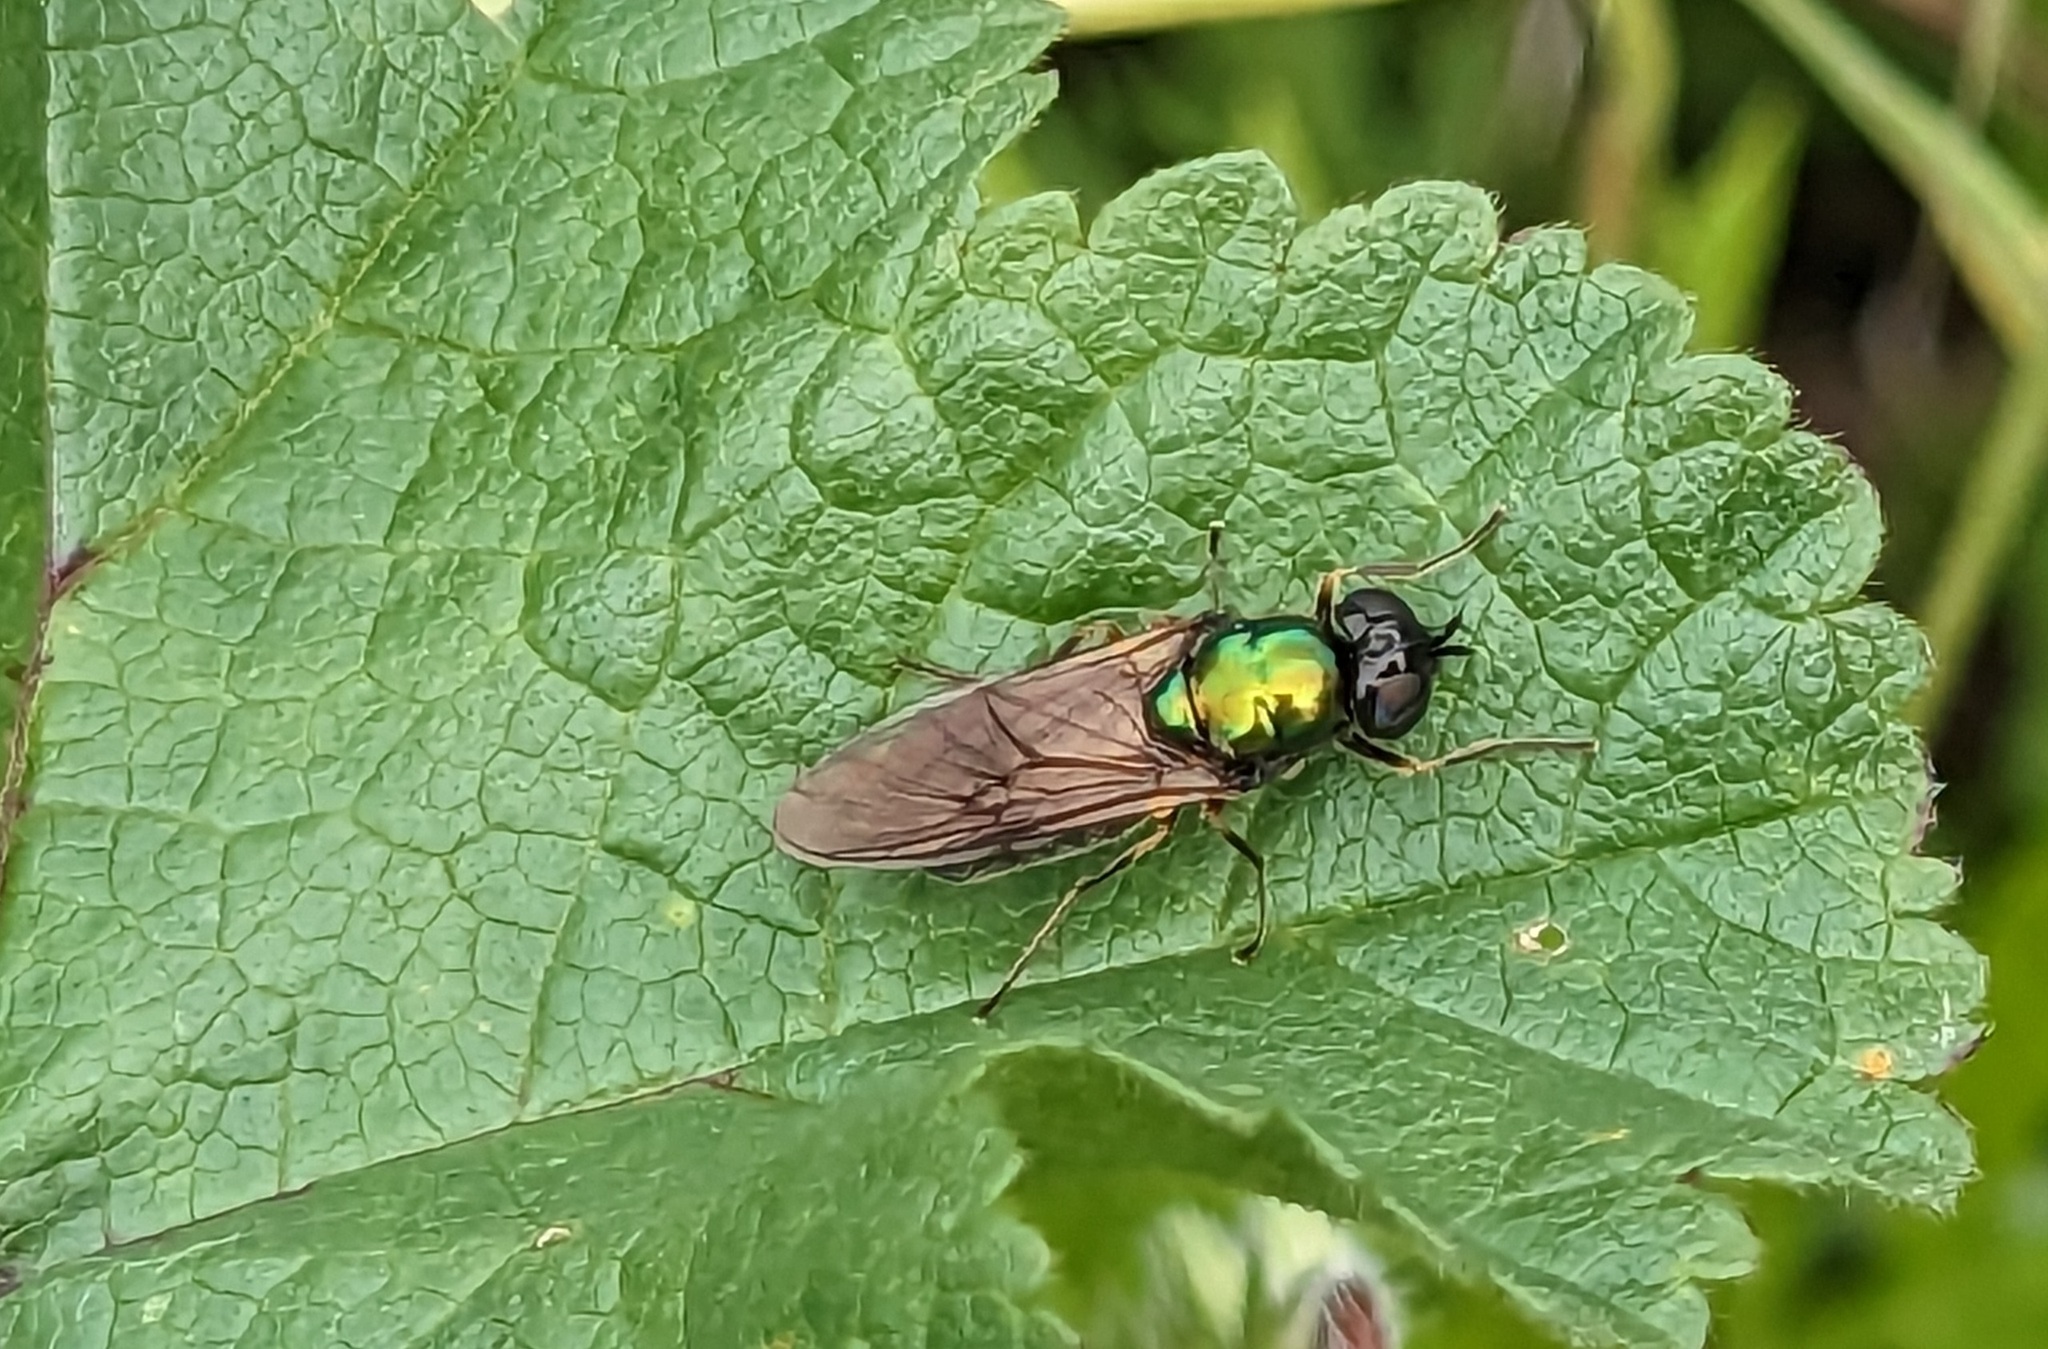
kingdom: Animalia
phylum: Arthropoda
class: Insecta
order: Diptera
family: Stratiomyidae
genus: Chloromyia
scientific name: Chloromyia formosa
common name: Soldier fly
